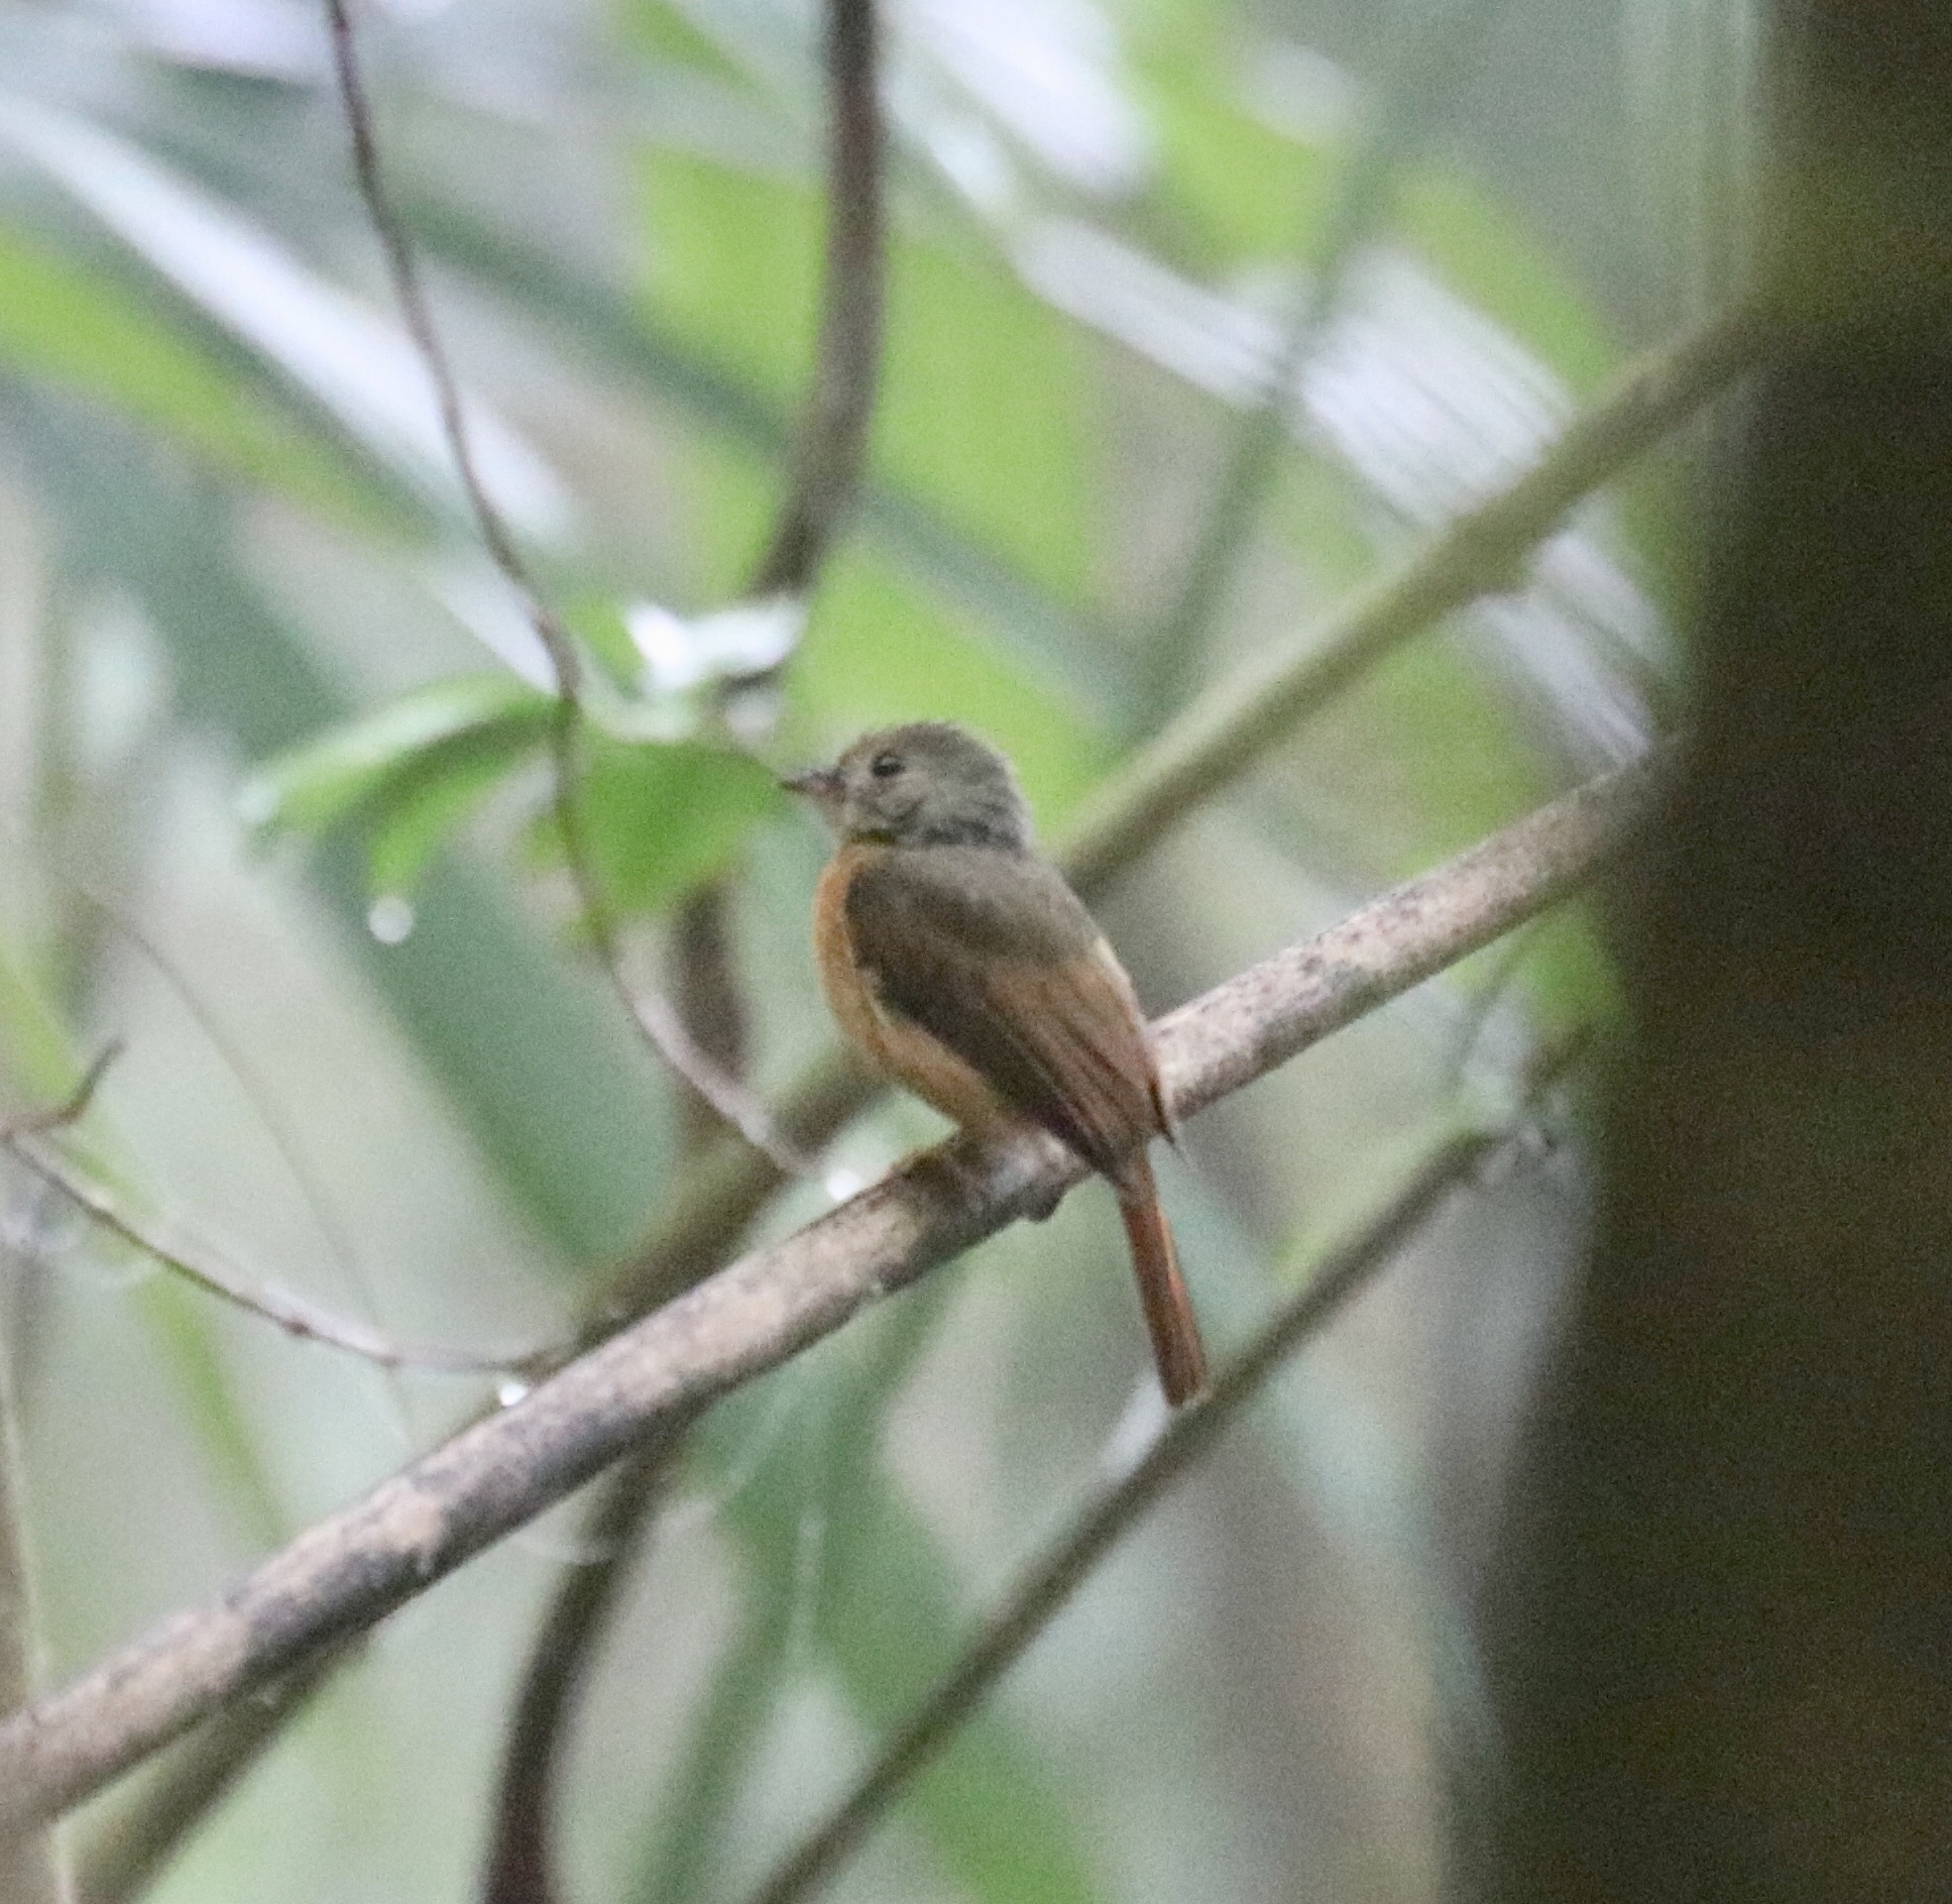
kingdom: Animalia
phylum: Chordata
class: Aves
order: Passeriformes
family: Tyrannidae
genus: Terenotriccus
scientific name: Terenotriccus erythrurus
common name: Ruddy-tailed flycatcher
